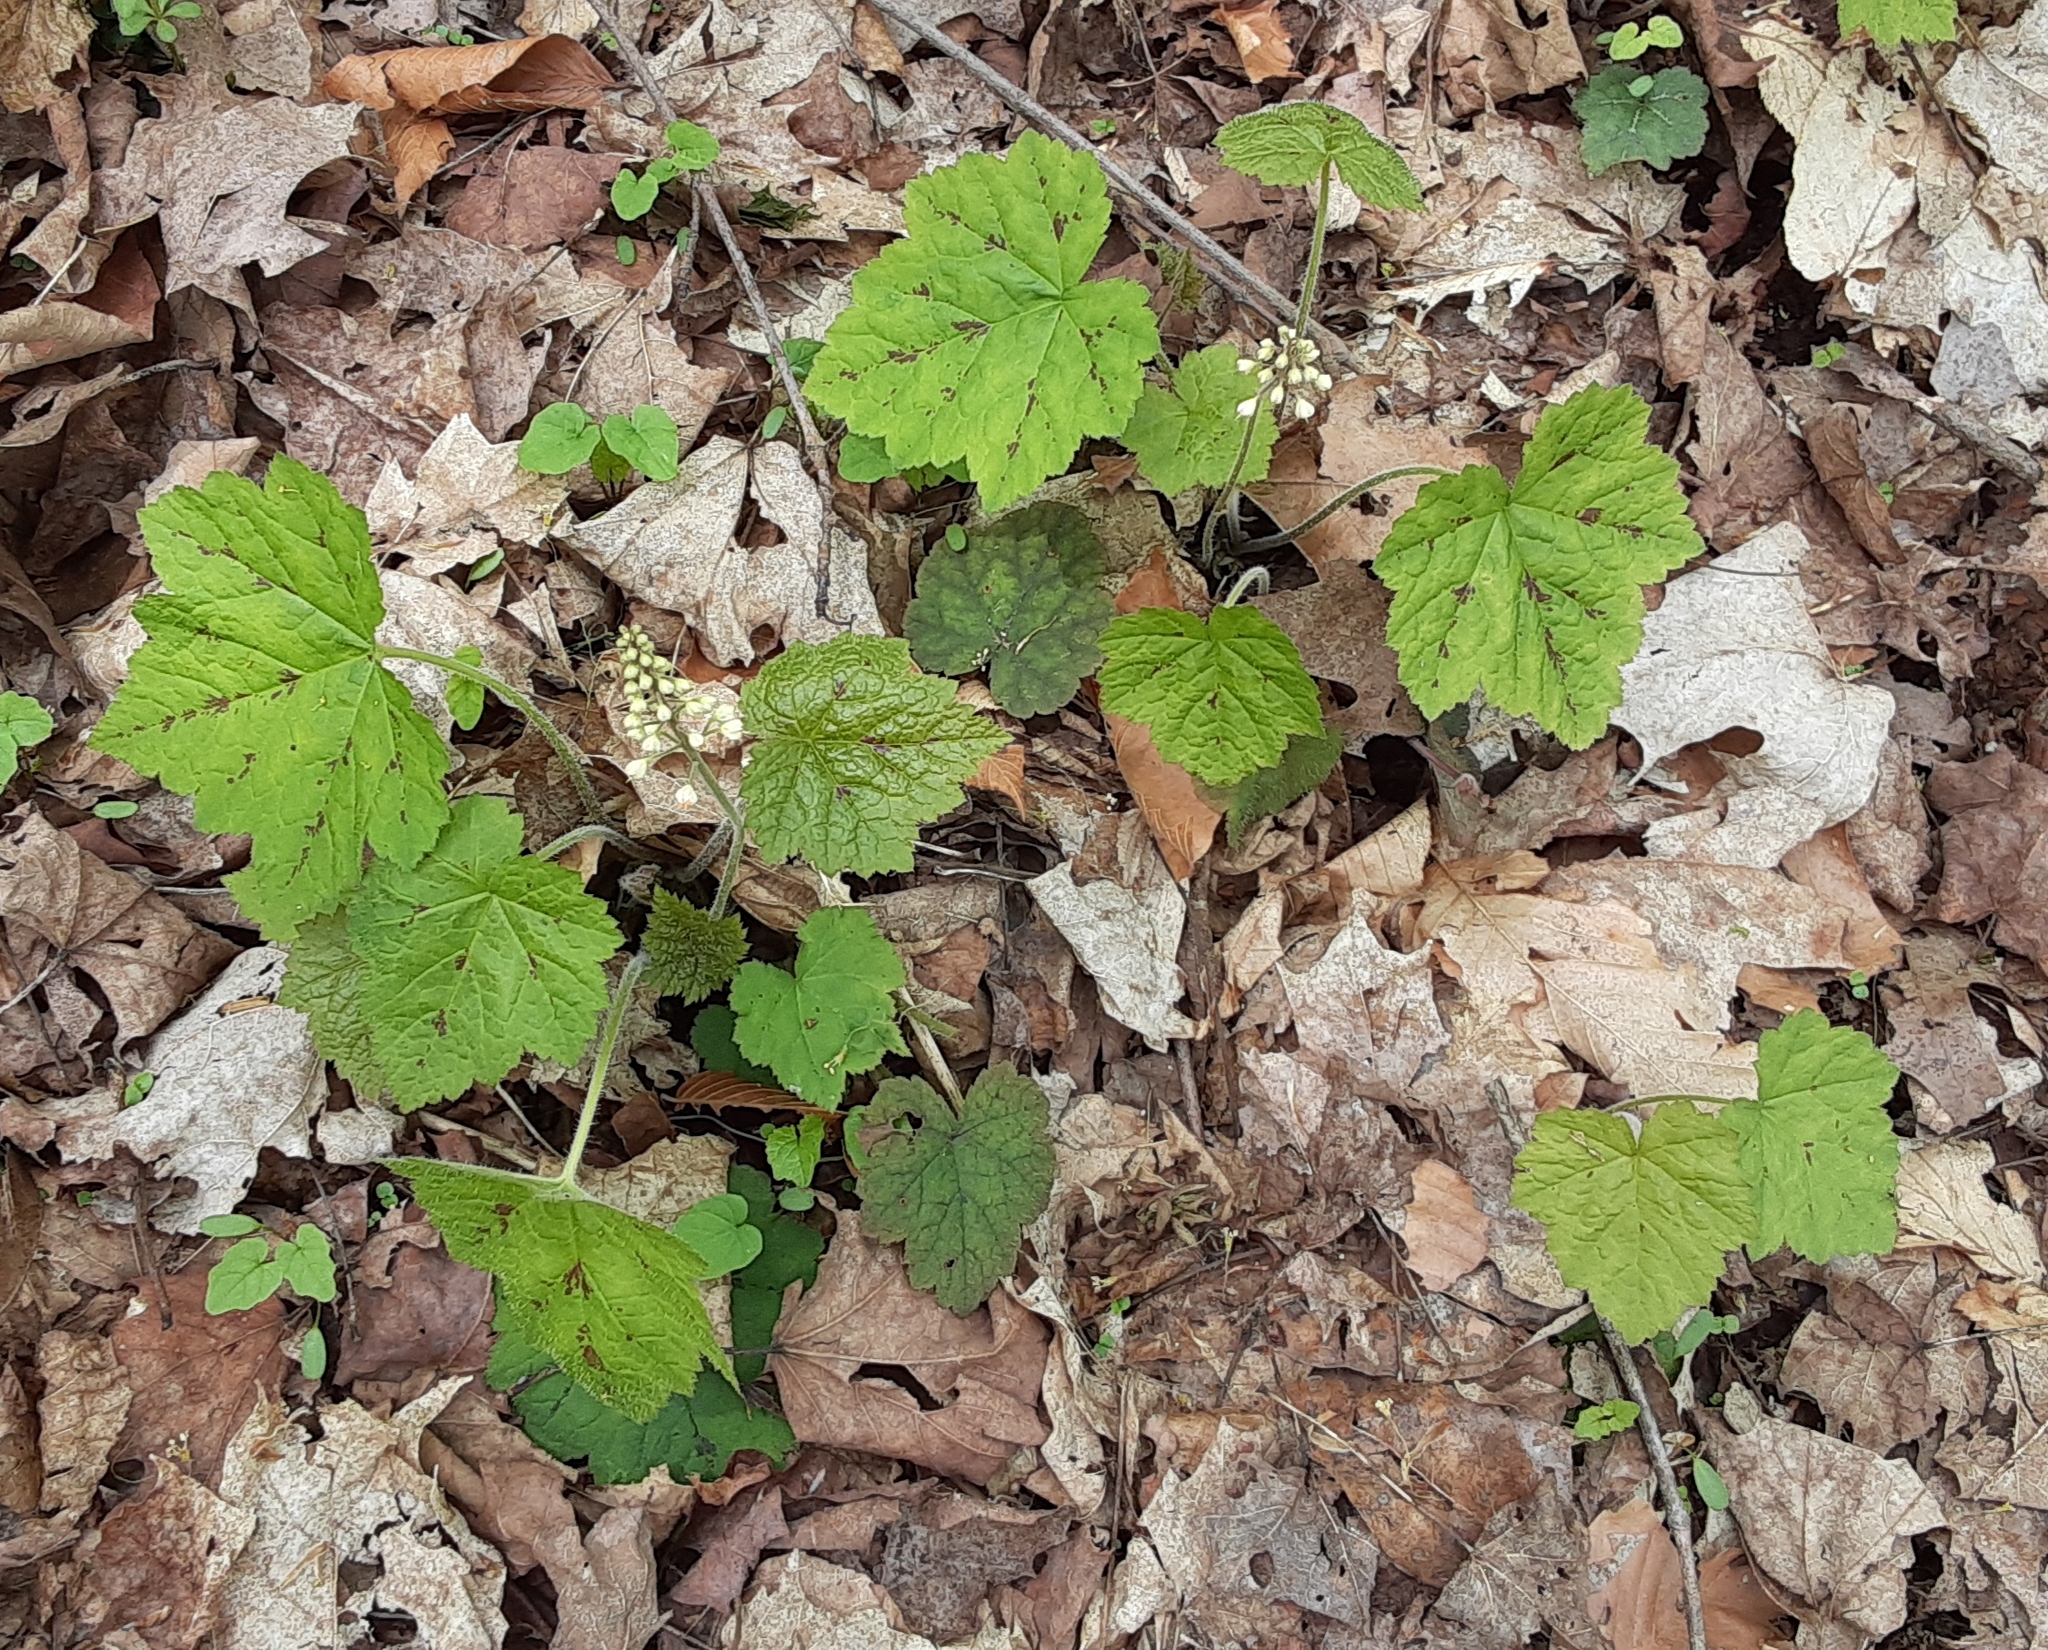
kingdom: Plantae
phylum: Tracheophyta
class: Magnoliopsida
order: Saxifragales
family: Saxifragaceae
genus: Tiarella
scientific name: Tiarella stolonifera
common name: Stoloniferous foamflower
